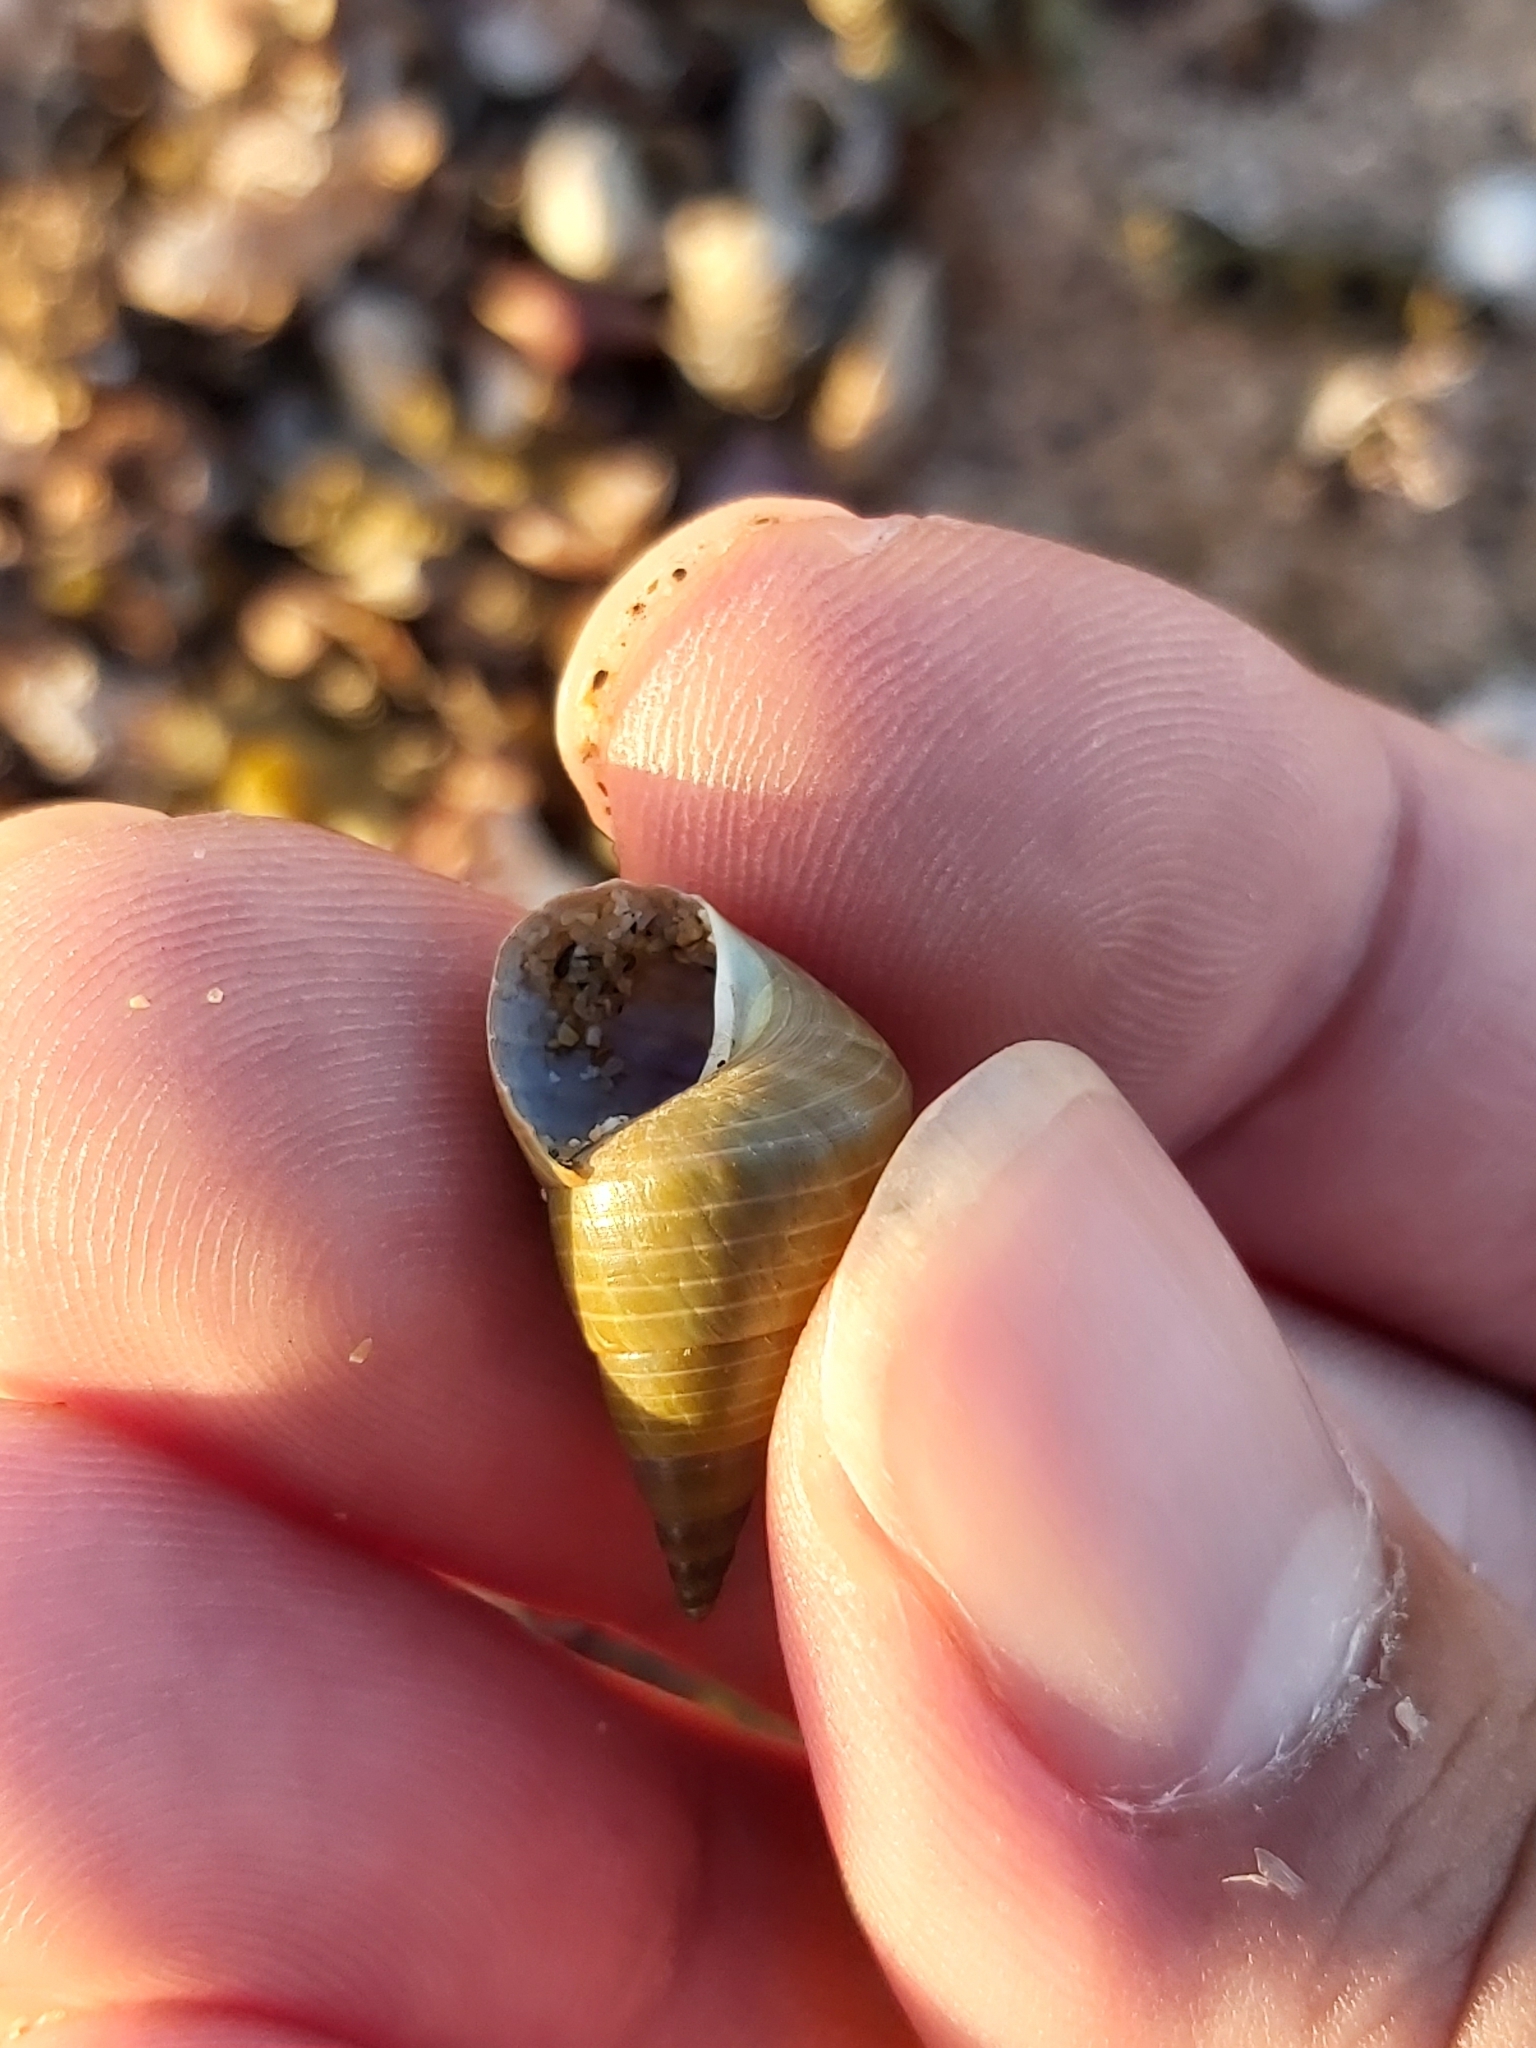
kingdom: Animalia
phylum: Mollusca
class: Gastropoda
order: Trochida
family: Trochidae
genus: Phasianotrochus
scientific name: Phasianotrochus eximius
